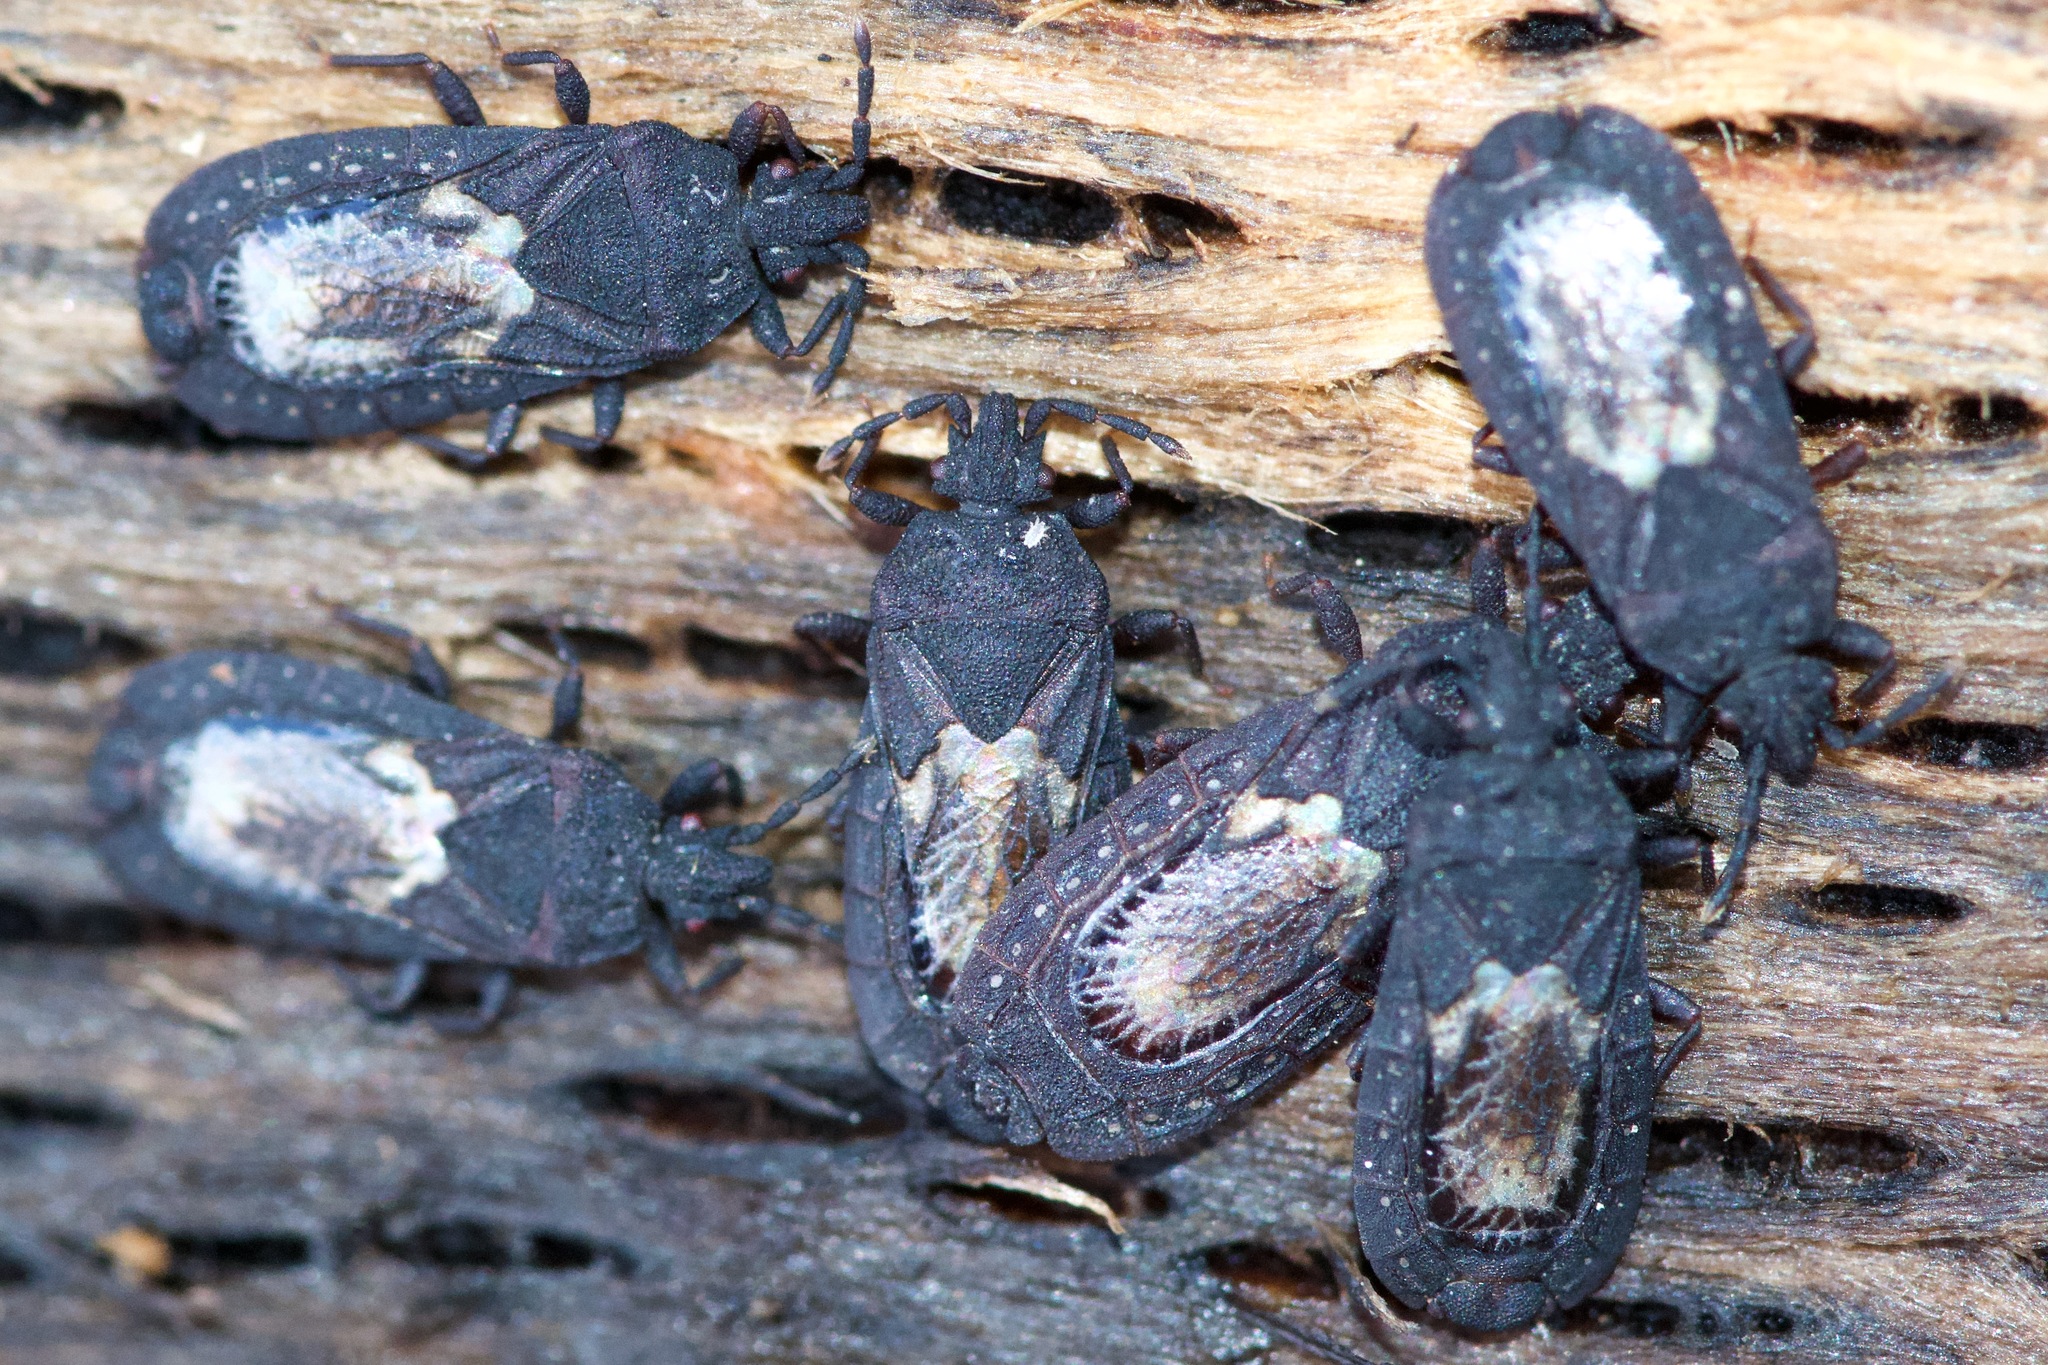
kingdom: Animalia
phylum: Arthropoda
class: Insecta
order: Hemiptera
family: Aradidae
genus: Neuroctenus
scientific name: Neuroctenus simplex
